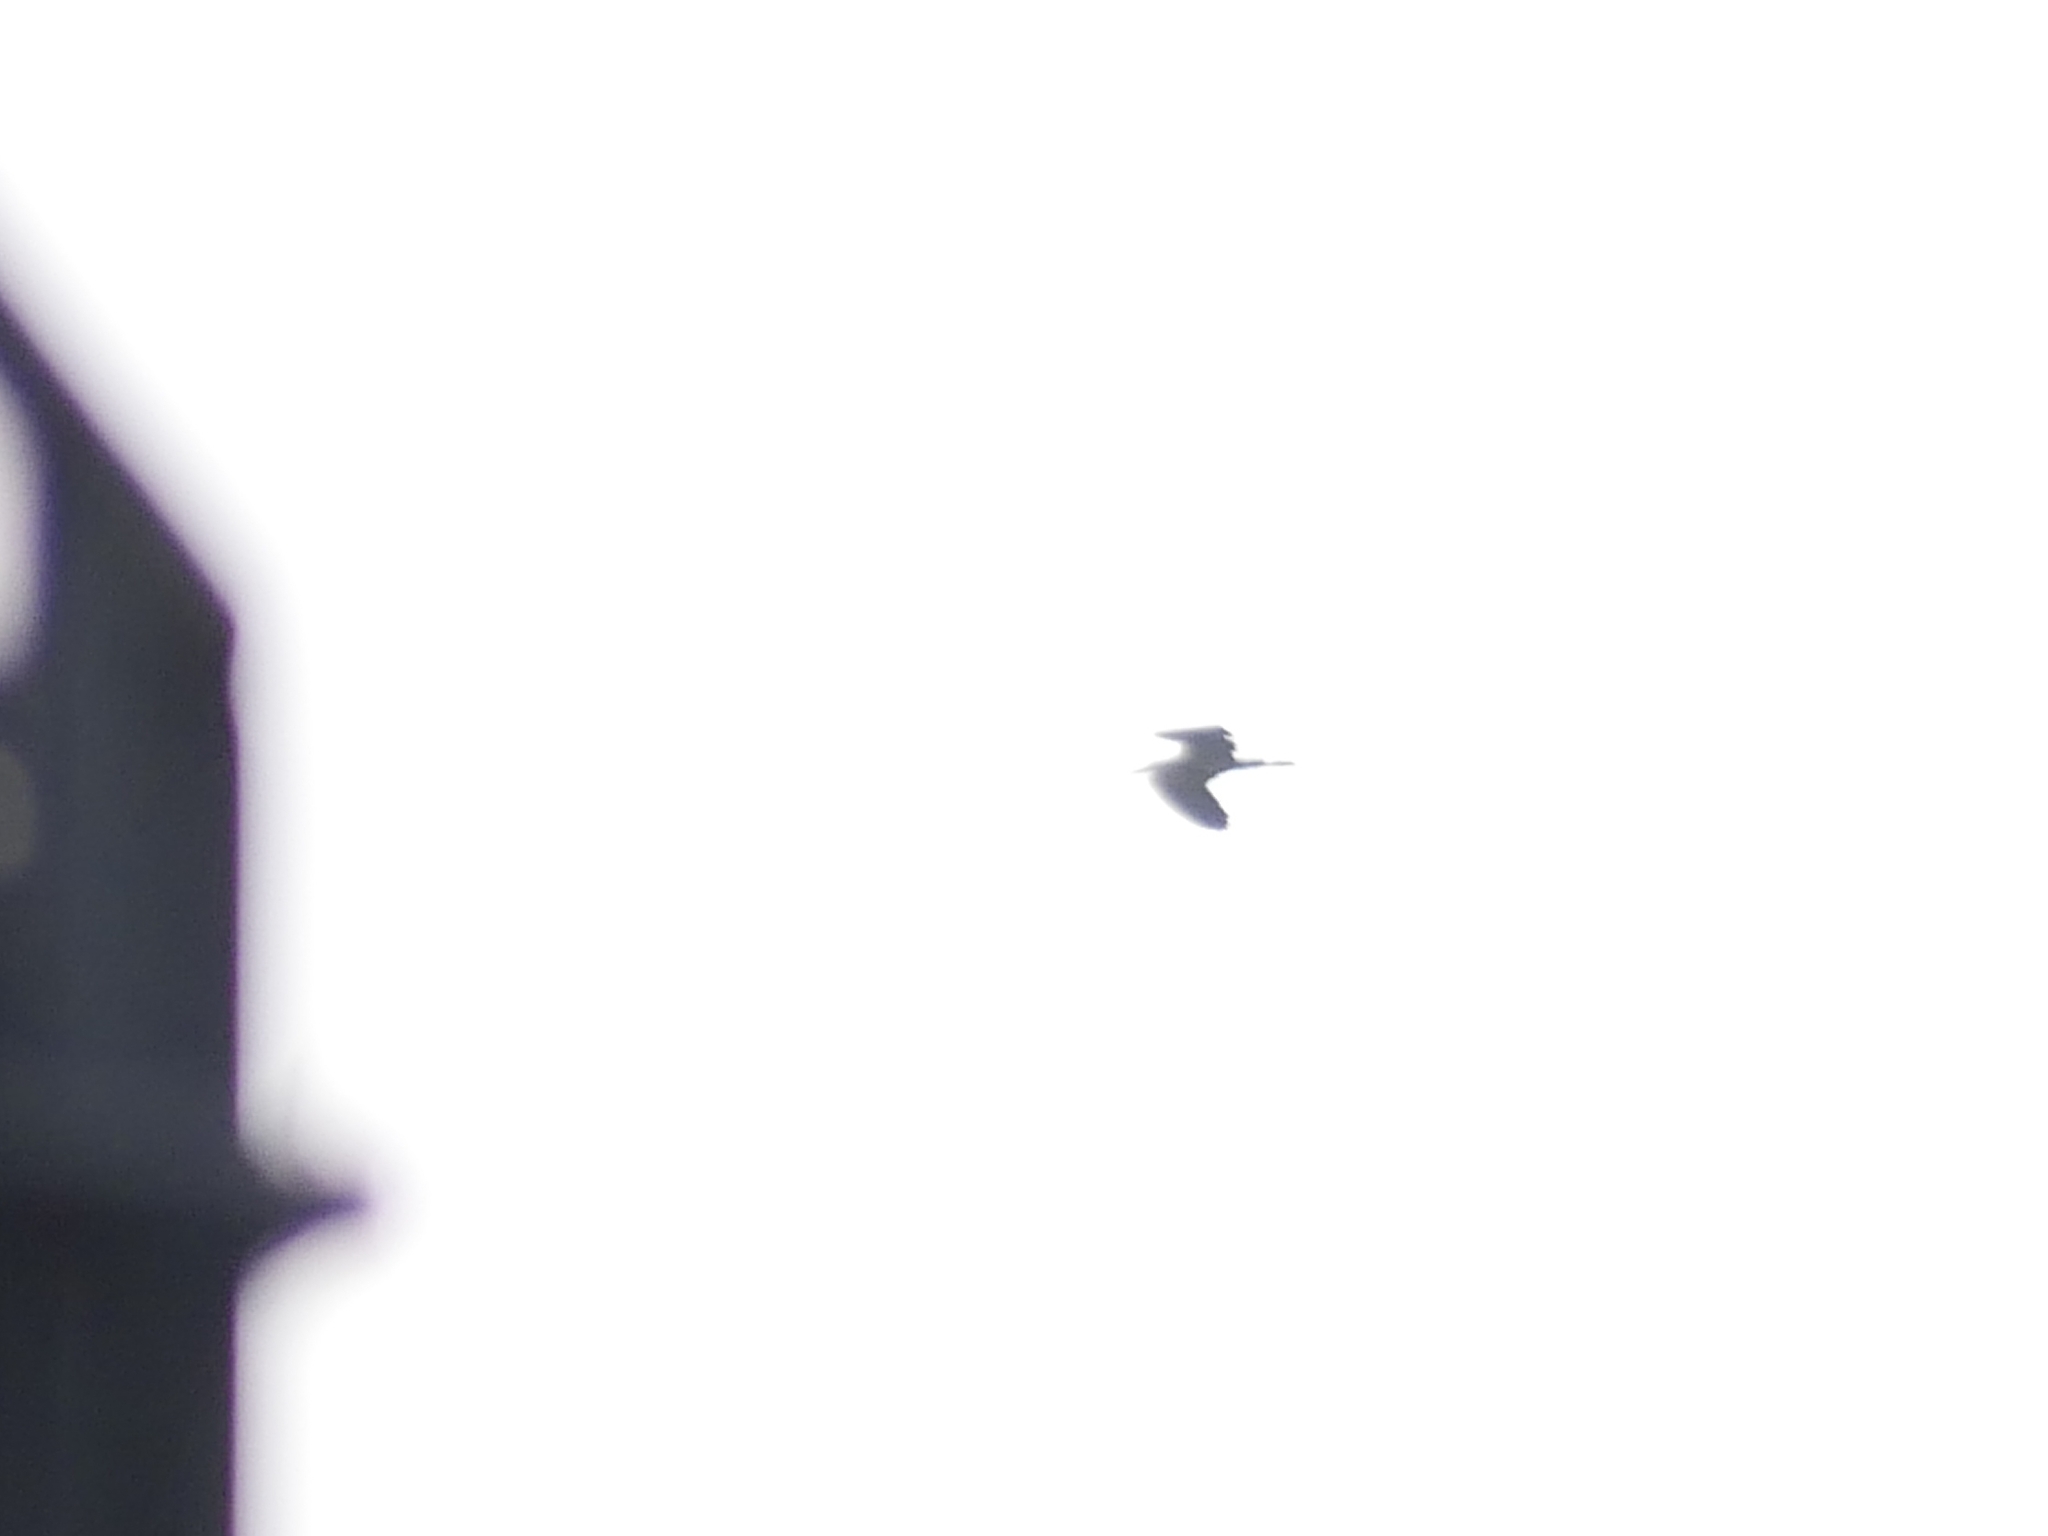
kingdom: Animalia
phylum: Chordata
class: Aves
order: Pelecaniformes
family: Ardeidae
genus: Ardea
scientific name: Ardea cinerea
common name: Grey heron
